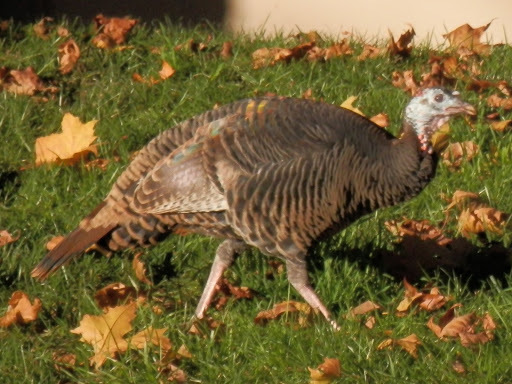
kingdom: Animalia
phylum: Chordata
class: Aves
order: Galliformes
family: Phasianidae
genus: Meleagris
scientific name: Meleagris gallopavo
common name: Wild turkey
